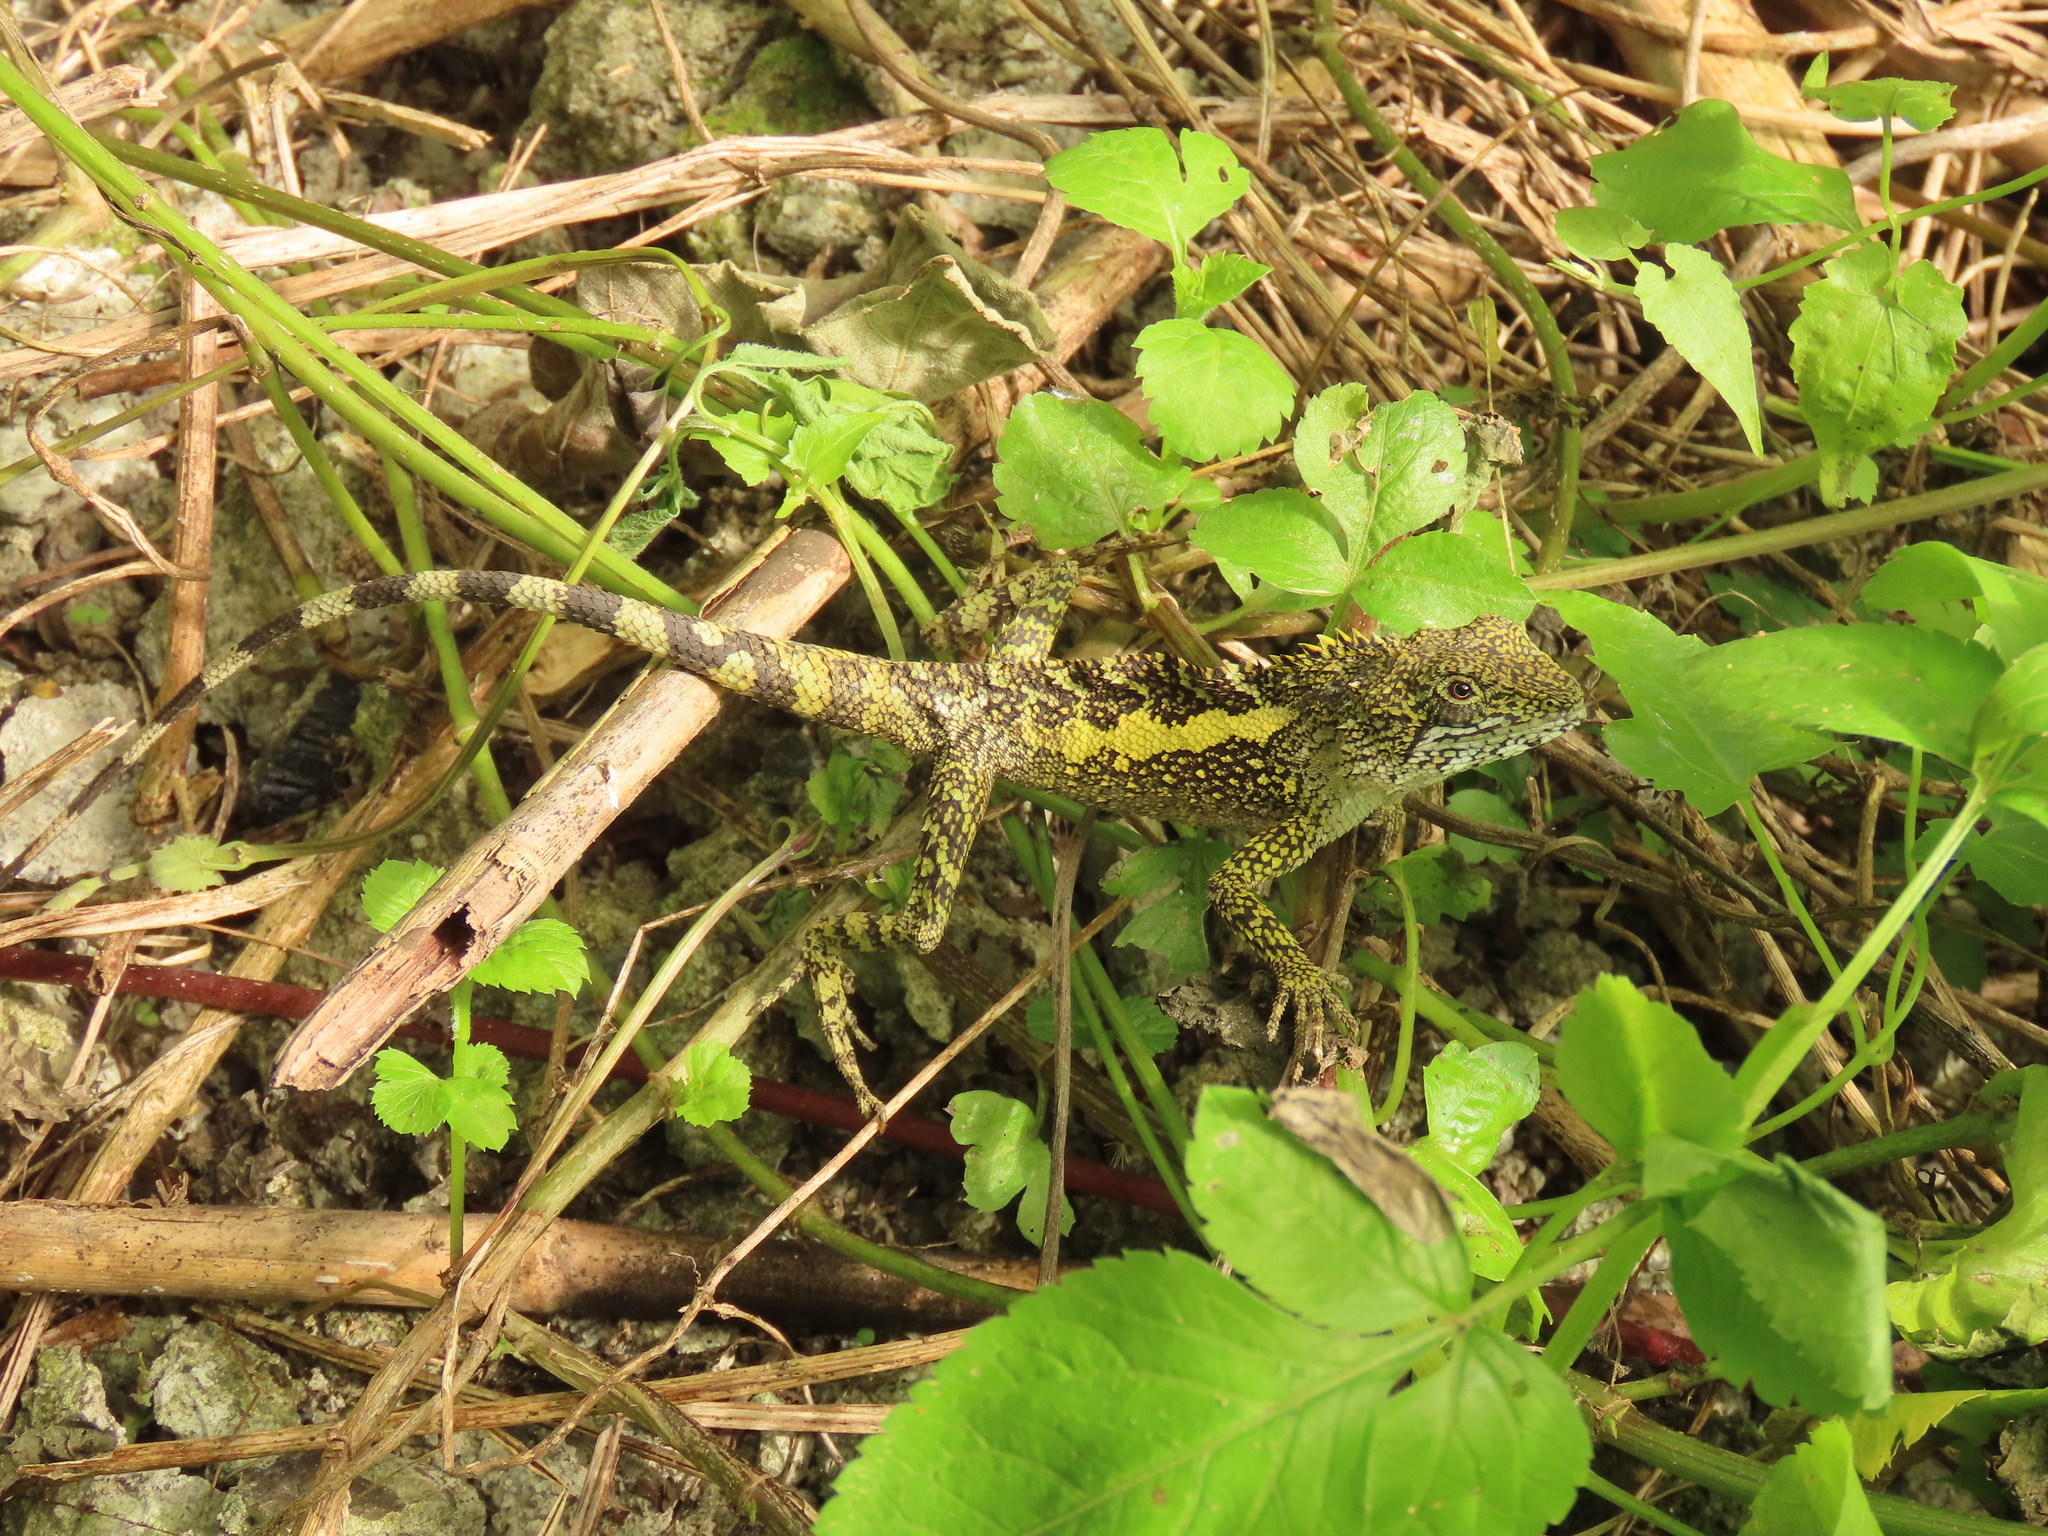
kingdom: Animalia
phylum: Chordata
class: Squamata
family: Agamidae
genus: Diploderma
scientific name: Diploderma swinhonis
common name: Taiwan japalure
